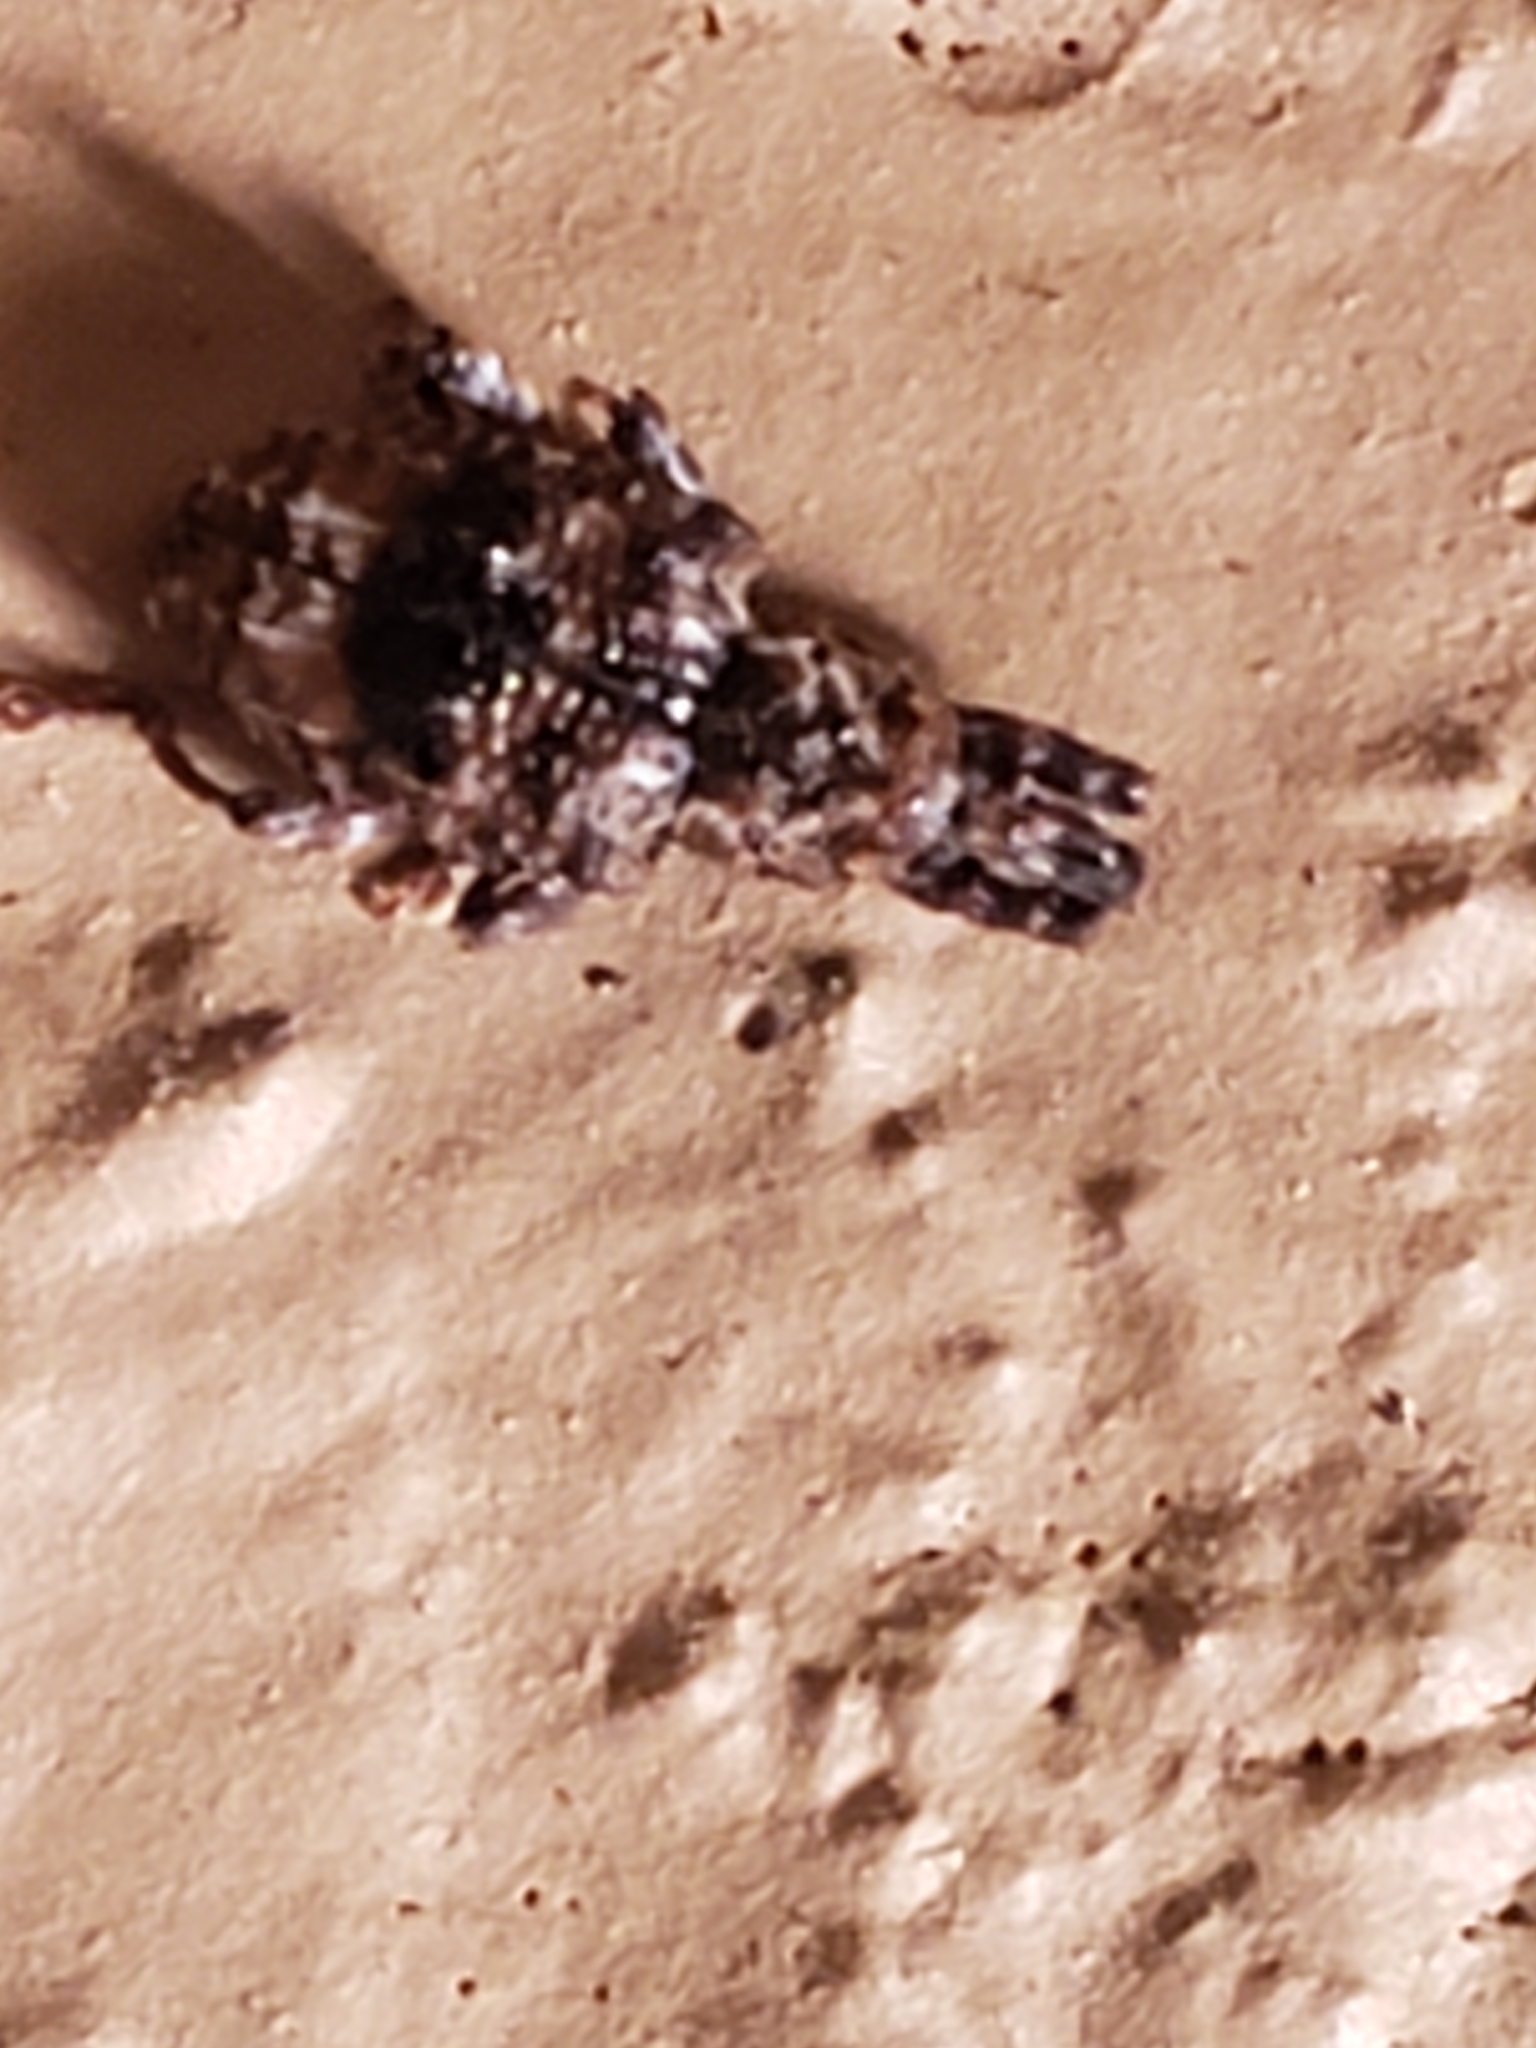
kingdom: Animalia
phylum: Arthropoda
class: Insecta
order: Coleoptera
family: Curculionidae
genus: Conotrachelus
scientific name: Conotrachelus nenuphar
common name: Plum curculio
